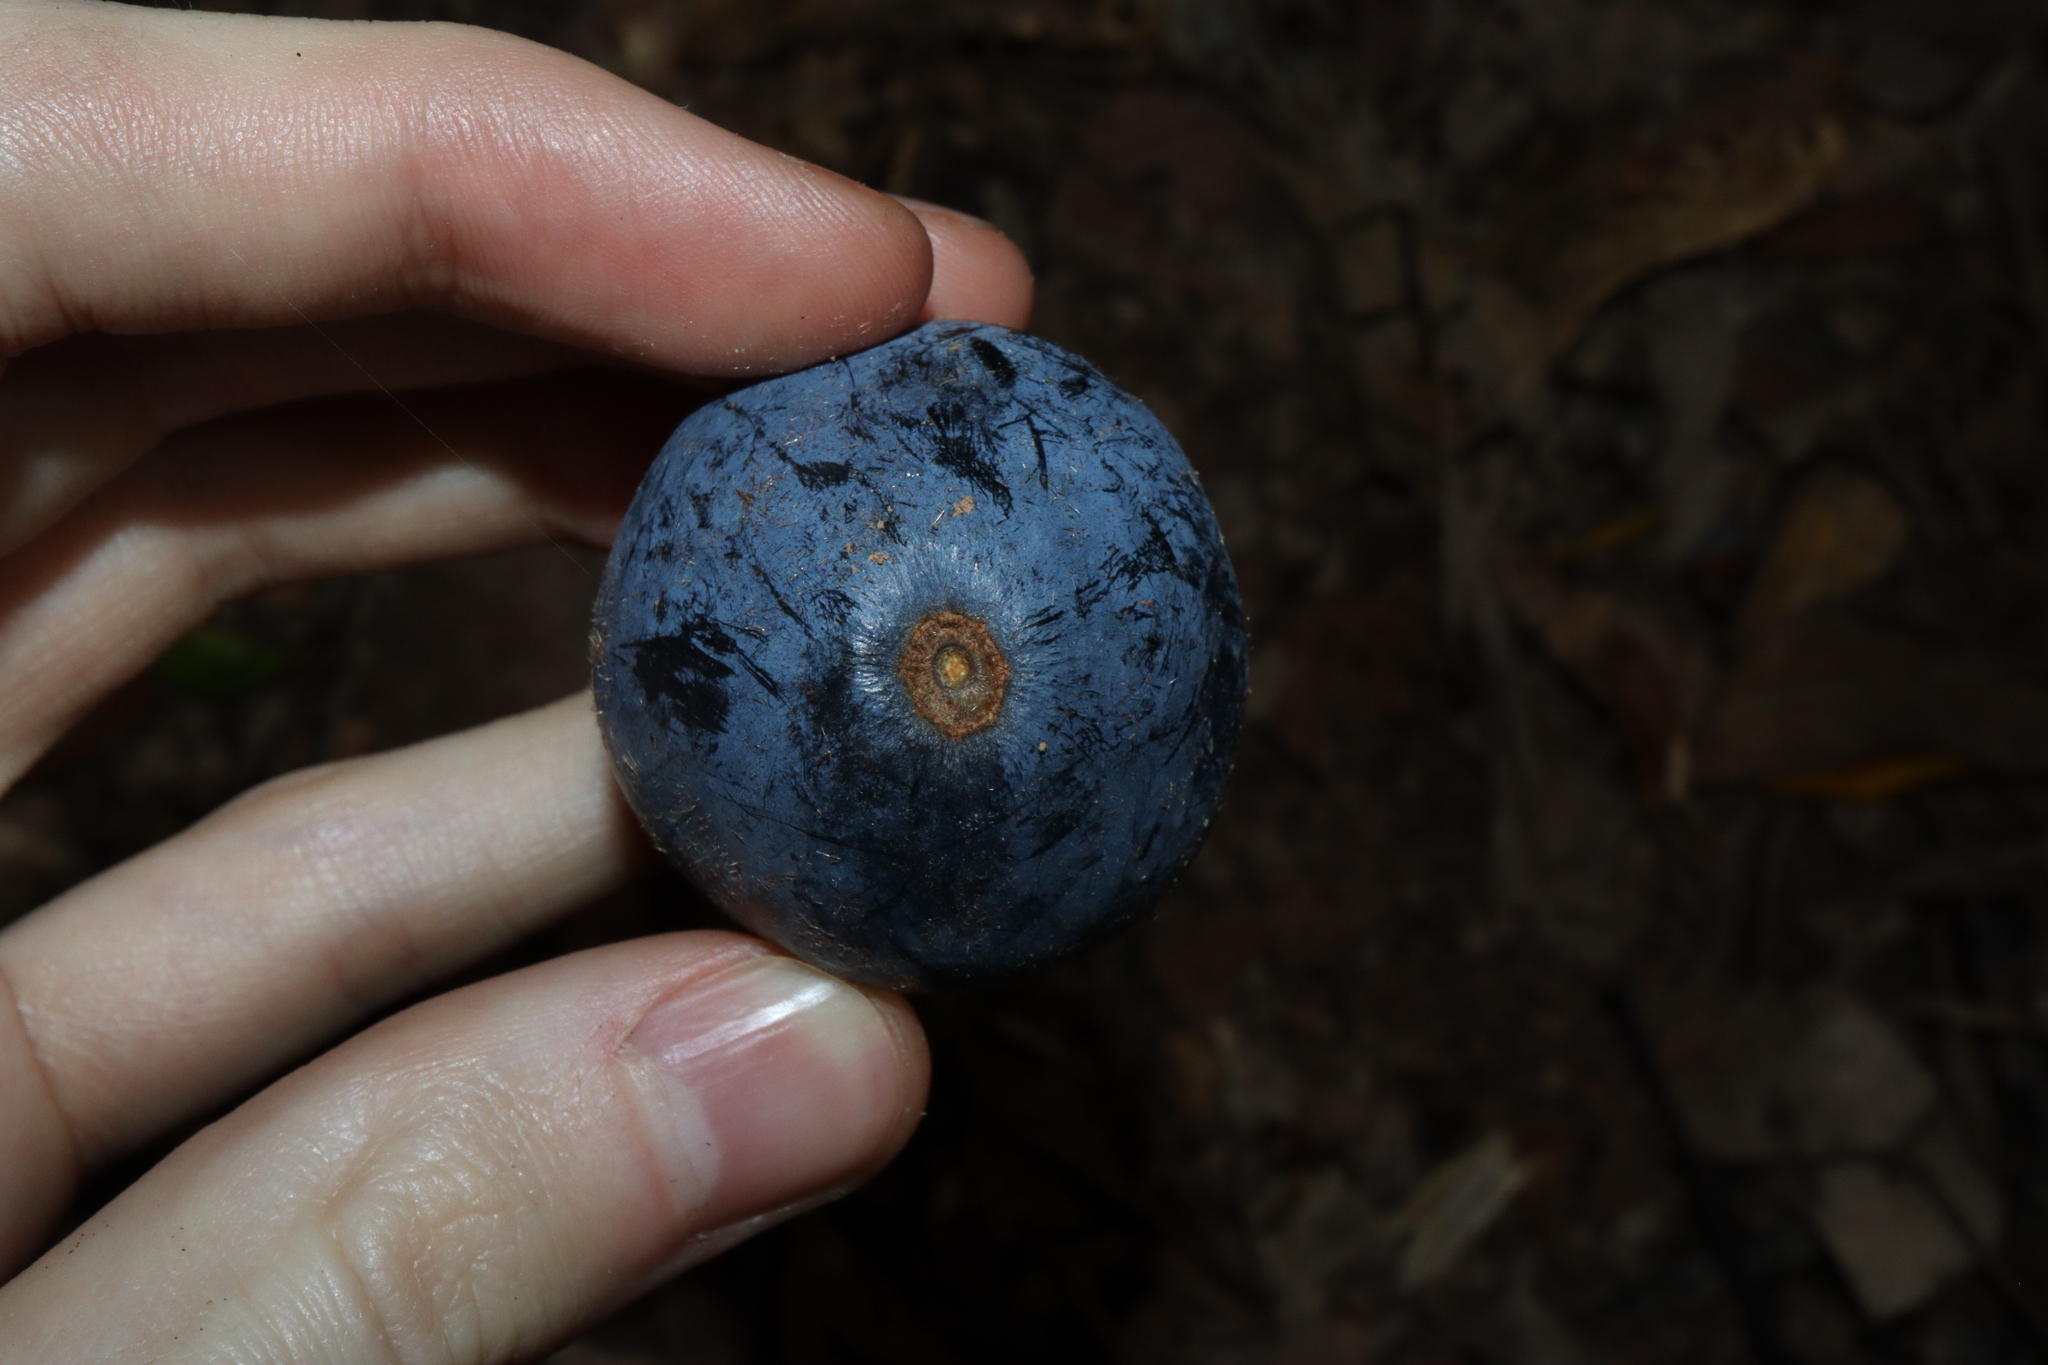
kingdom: Plantae
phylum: Tracheophyta
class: Magnoliopsida
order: Oxalidales
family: Cunoniaceae
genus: Davidsonia
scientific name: Davidsonia pruriens
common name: Do-rog
